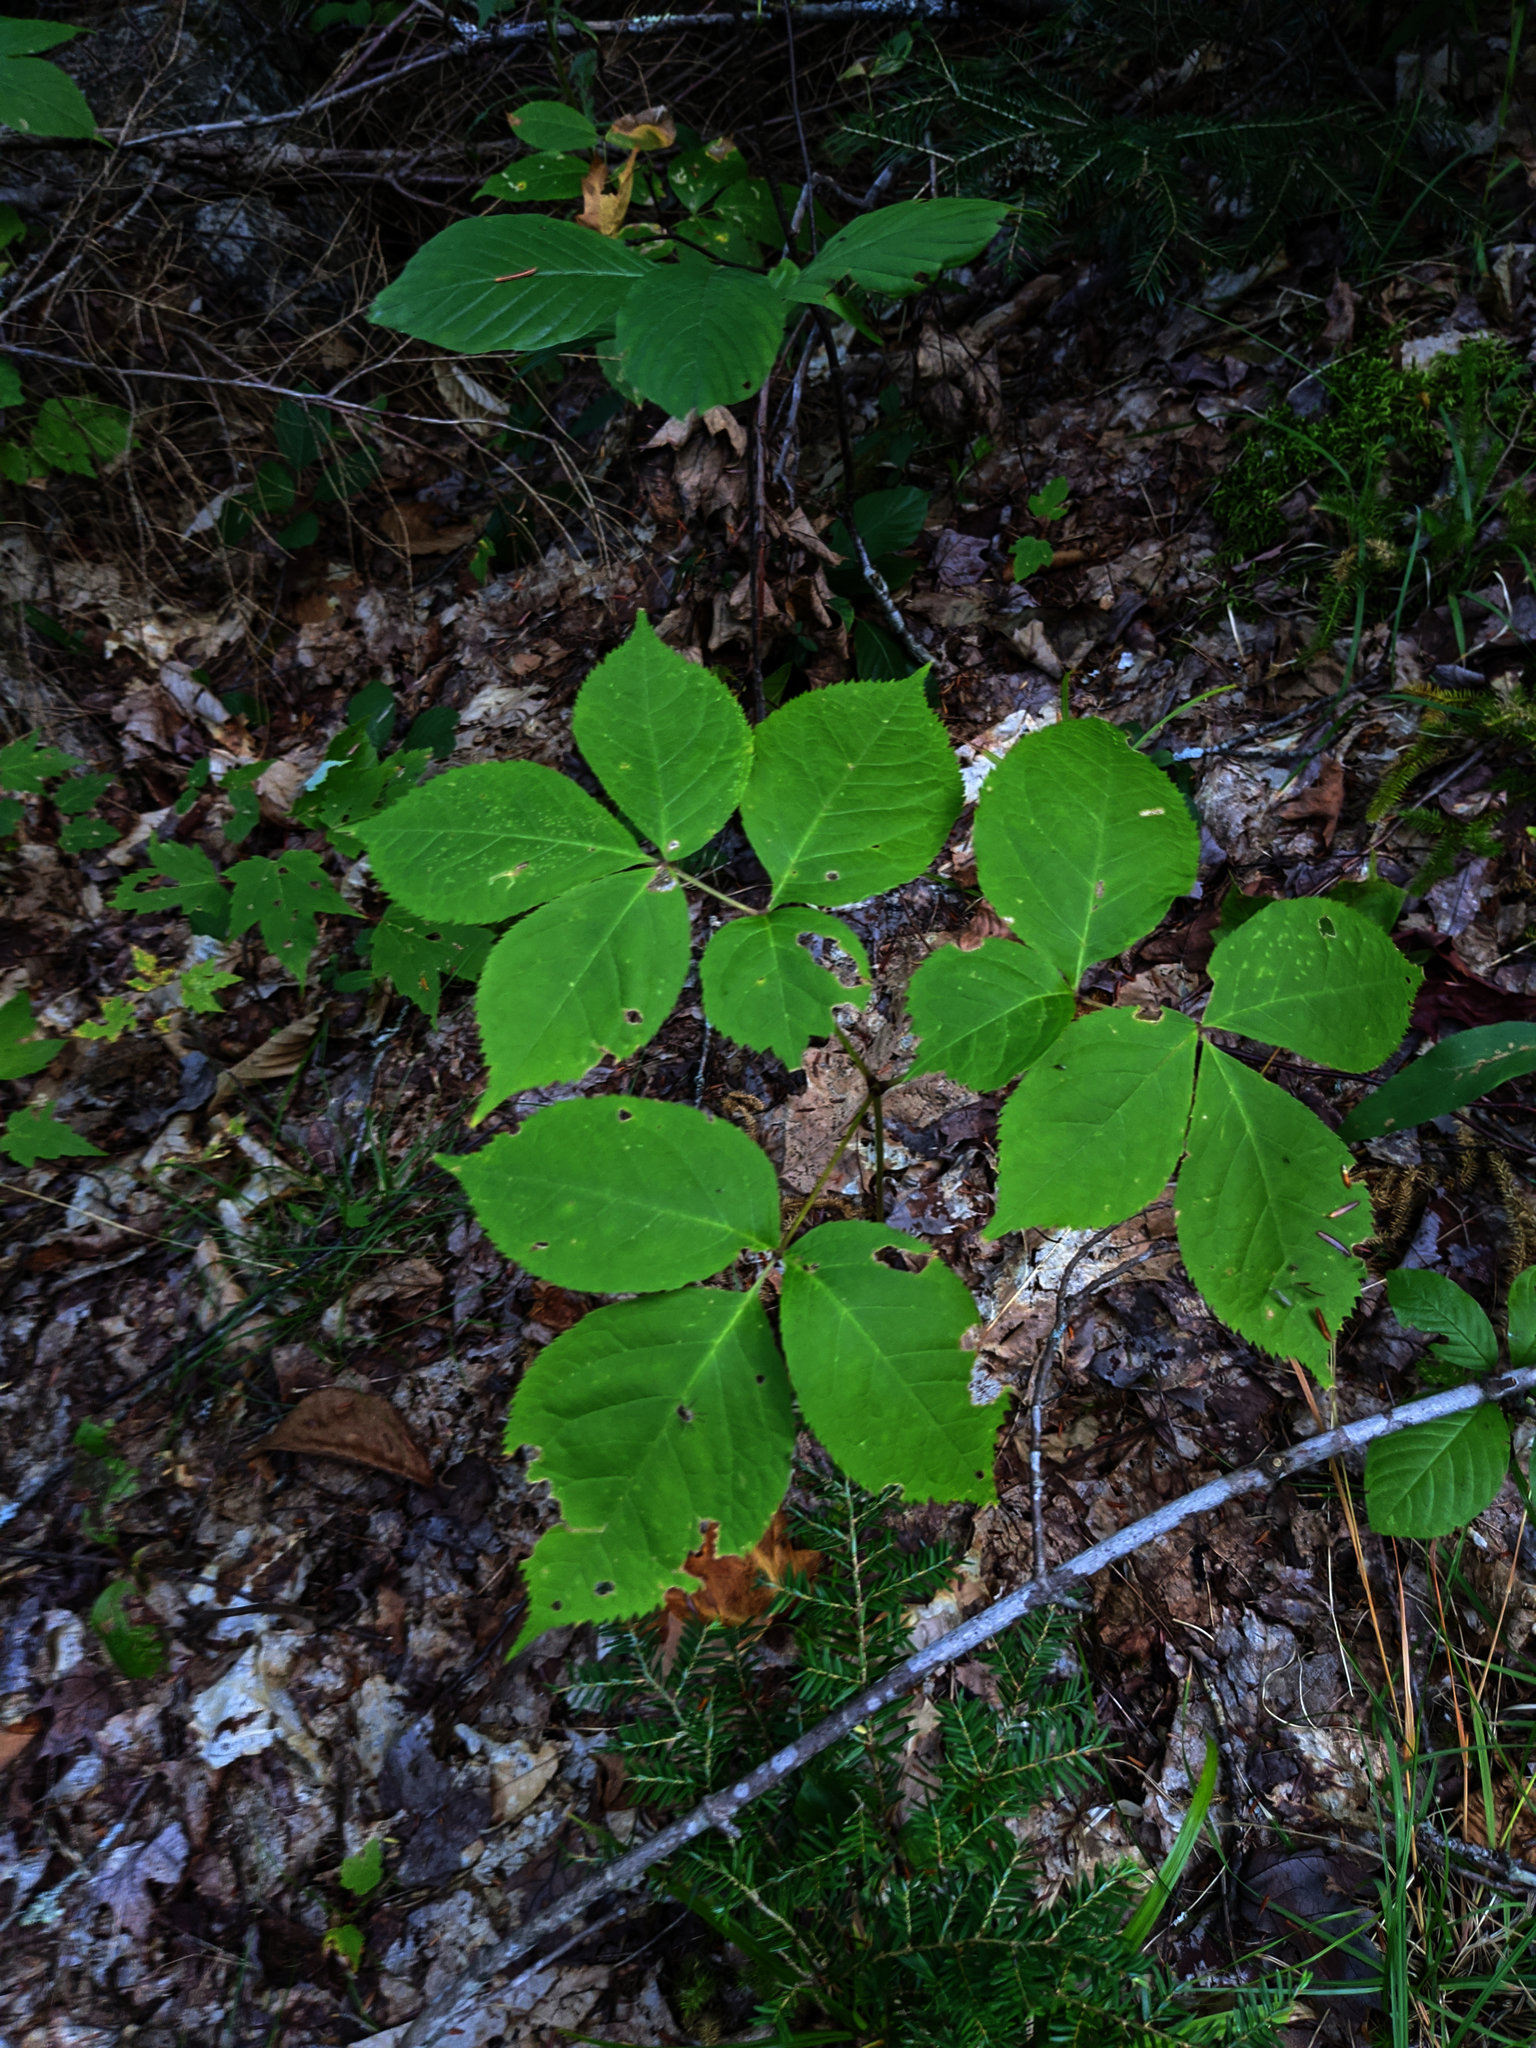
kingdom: Plantae
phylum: Tracheophyta
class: Magnoliopsida
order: Apiales
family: Araliaceae
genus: Aralia
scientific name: Aralia nudicaulis
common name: Wild sarsaparilla
